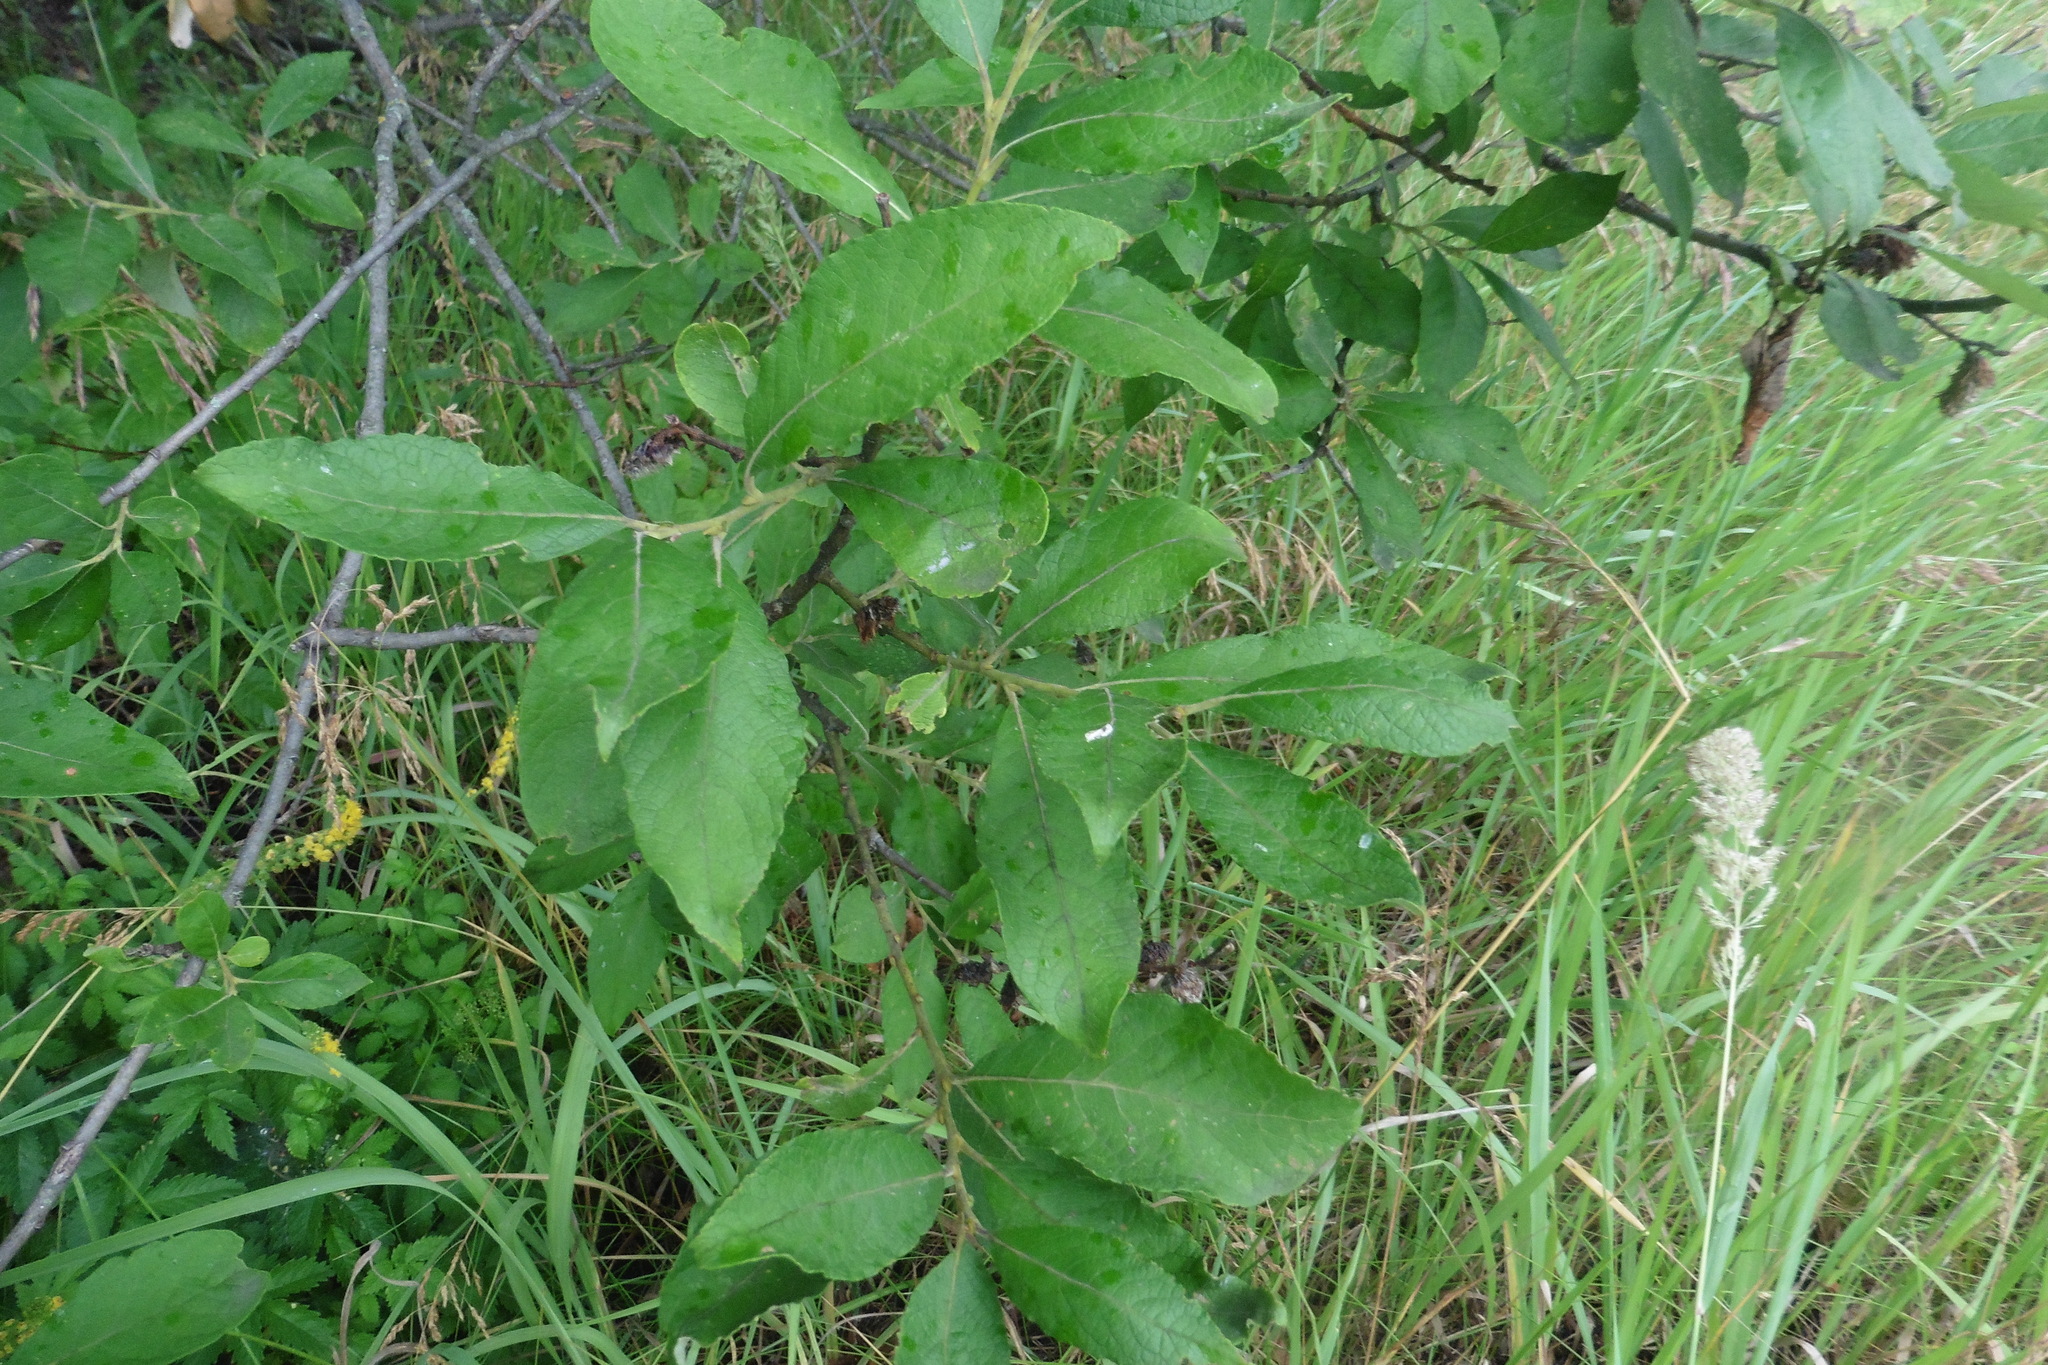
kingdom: Plantae
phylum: Tracheophyta
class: Magnoliopsida
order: Malpighiales
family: Salicaceae
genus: Salix
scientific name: Salix caprea
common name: Goat willow
